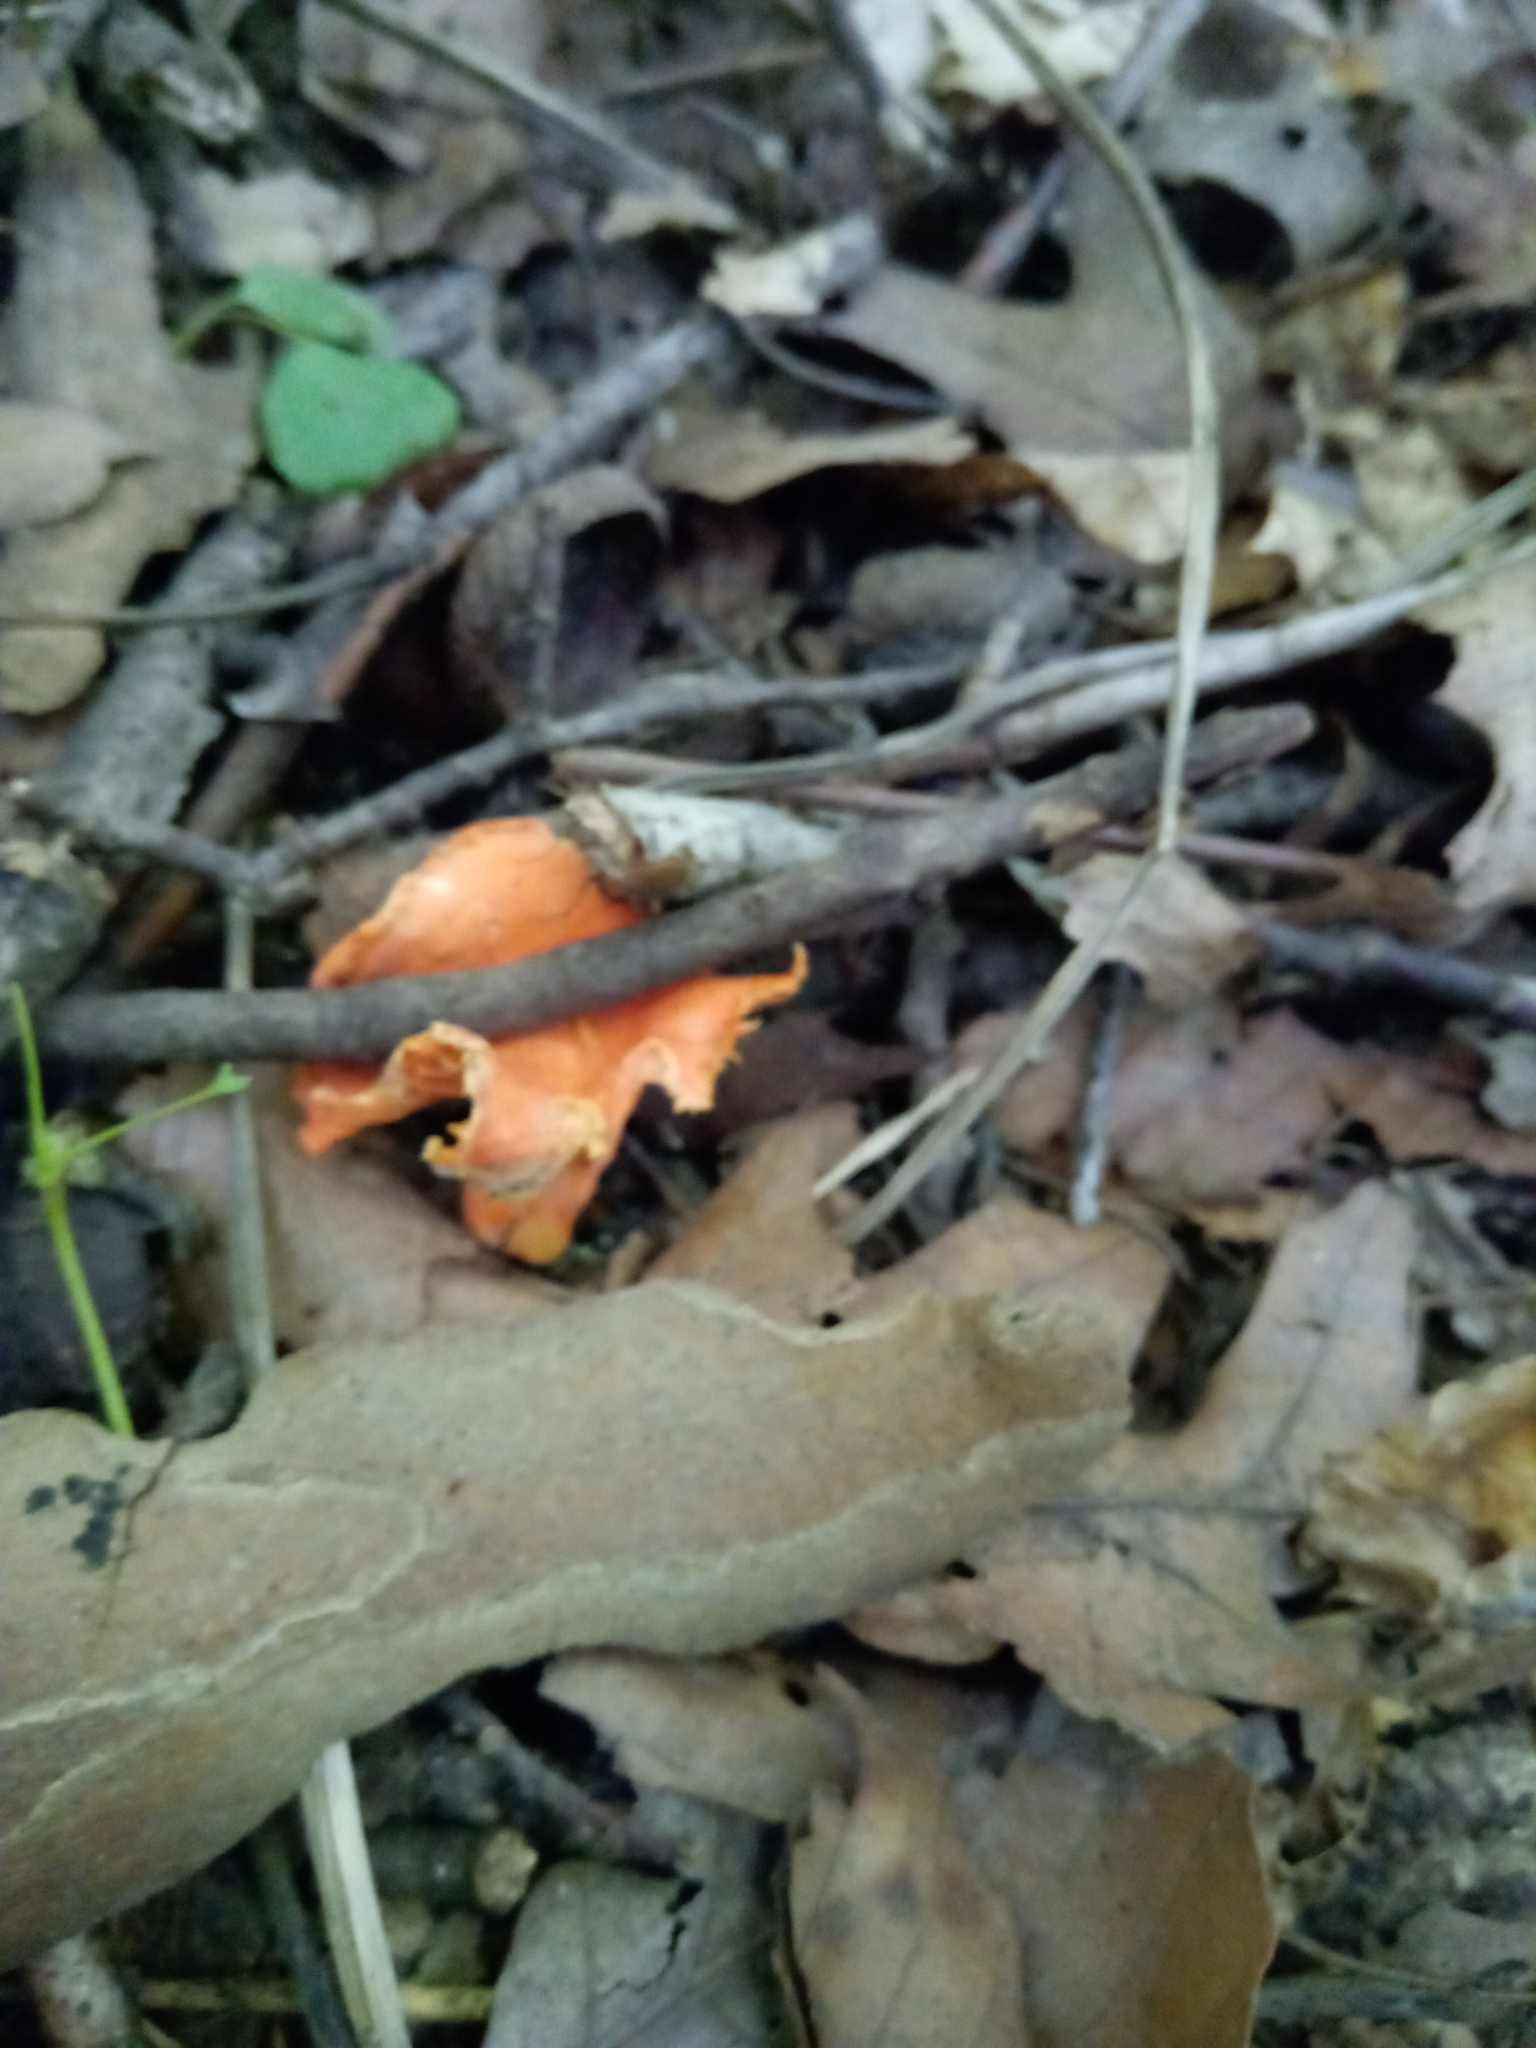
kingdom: Fungi
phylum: Basidiomycota
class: Agaricomycetes
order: Cantharellales
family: Hydnaceae
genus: Cantharellus
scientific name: Cantharellus corallinus
